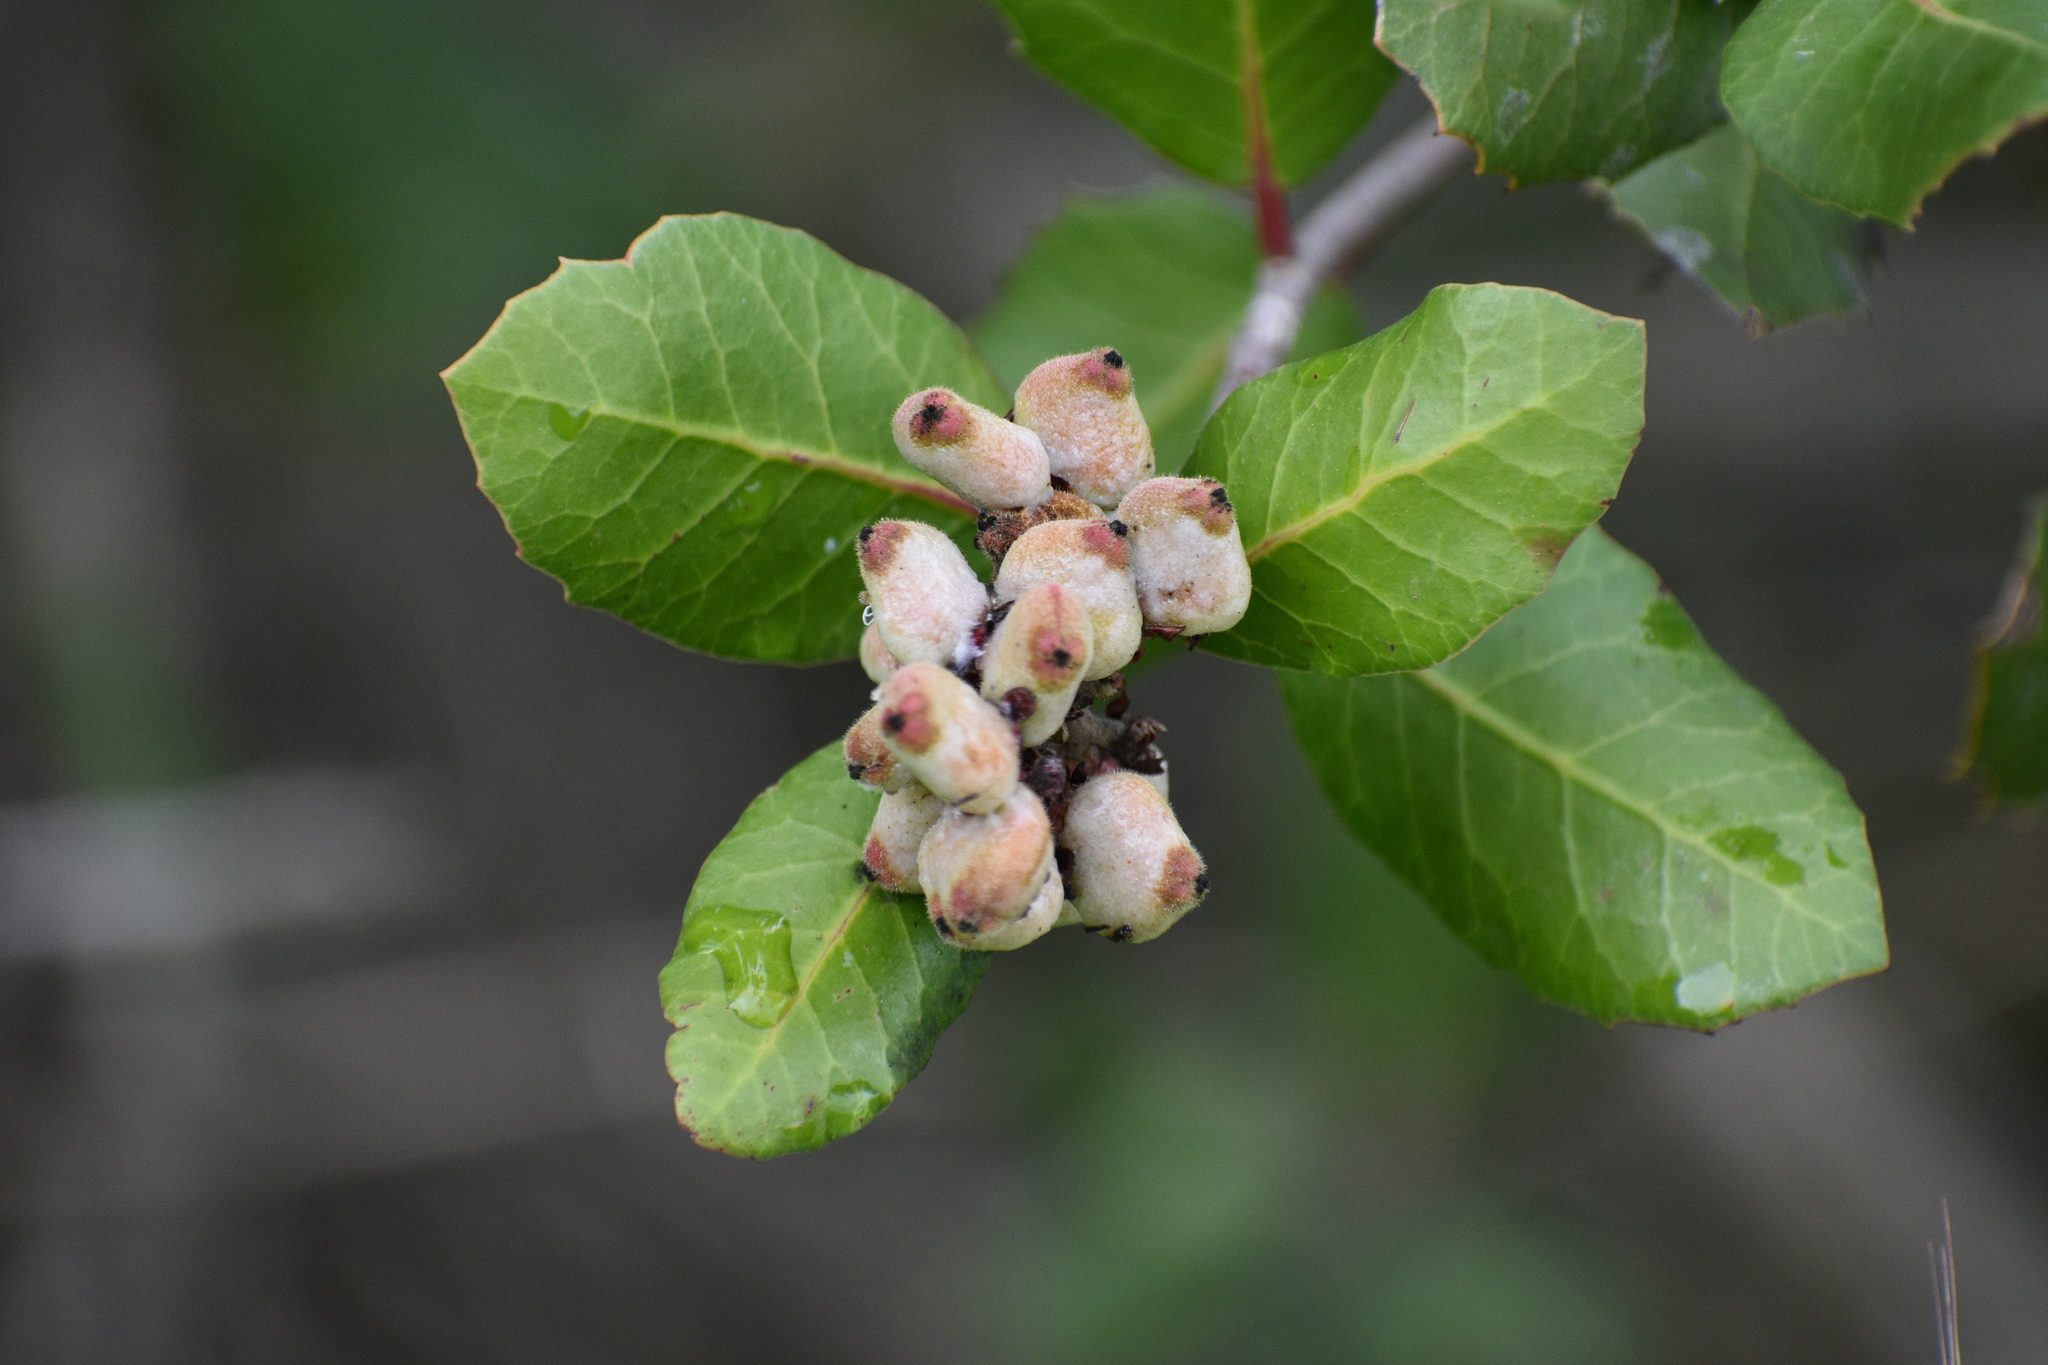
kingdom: Plantae
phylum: Tracheophyta
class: Magnoliopsida
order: Sapindales
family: Anacardiaceae
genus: Rhus
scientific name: Rhus integrifolia
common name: Lemonade sumac
